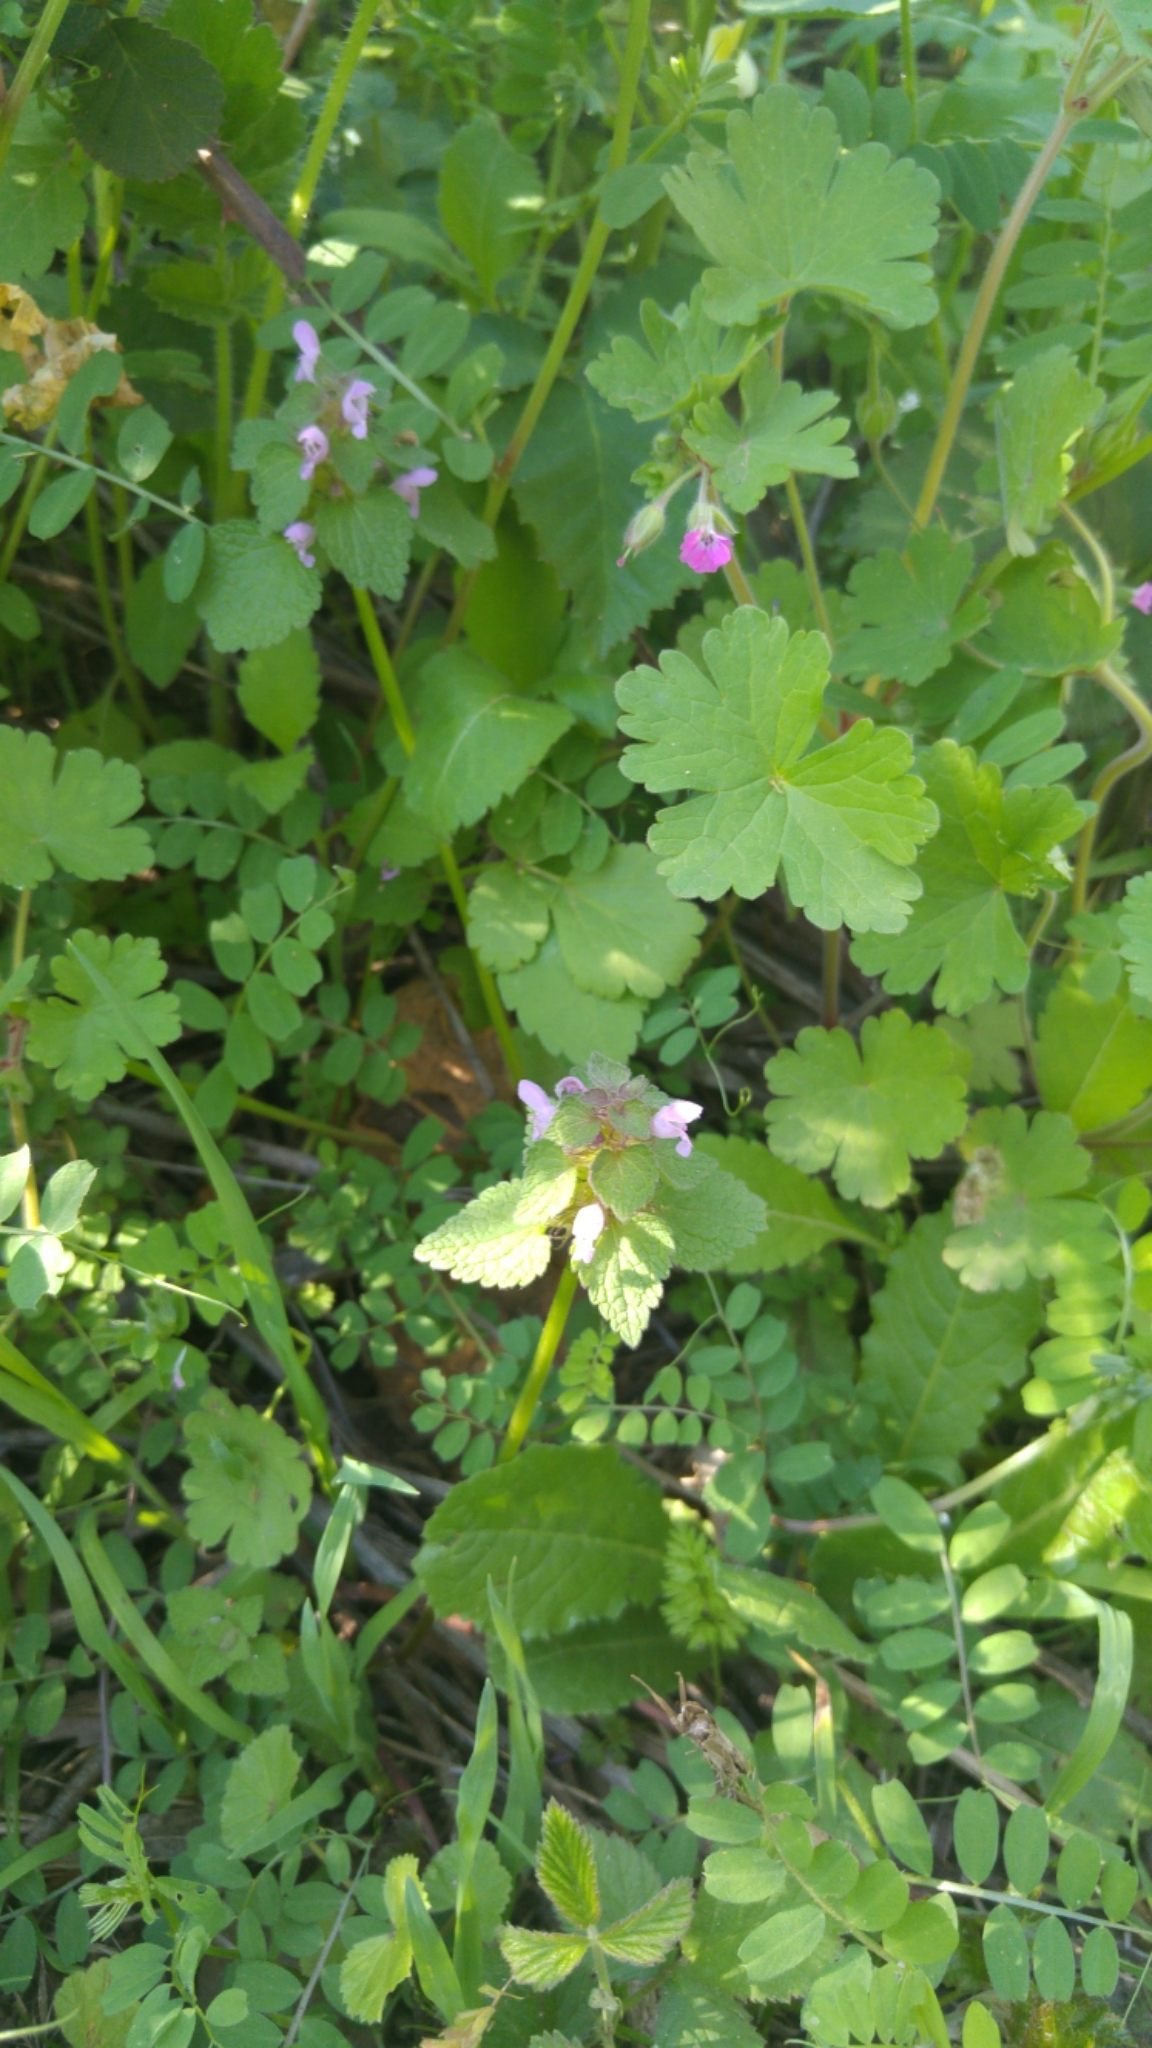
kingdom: Plantae
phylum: Tracheophyta
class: Magnoliopsida
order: Lamiales
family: Lamiaceae
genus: Lamium
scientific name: Lamium purpureum
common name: Red dead-nettle
